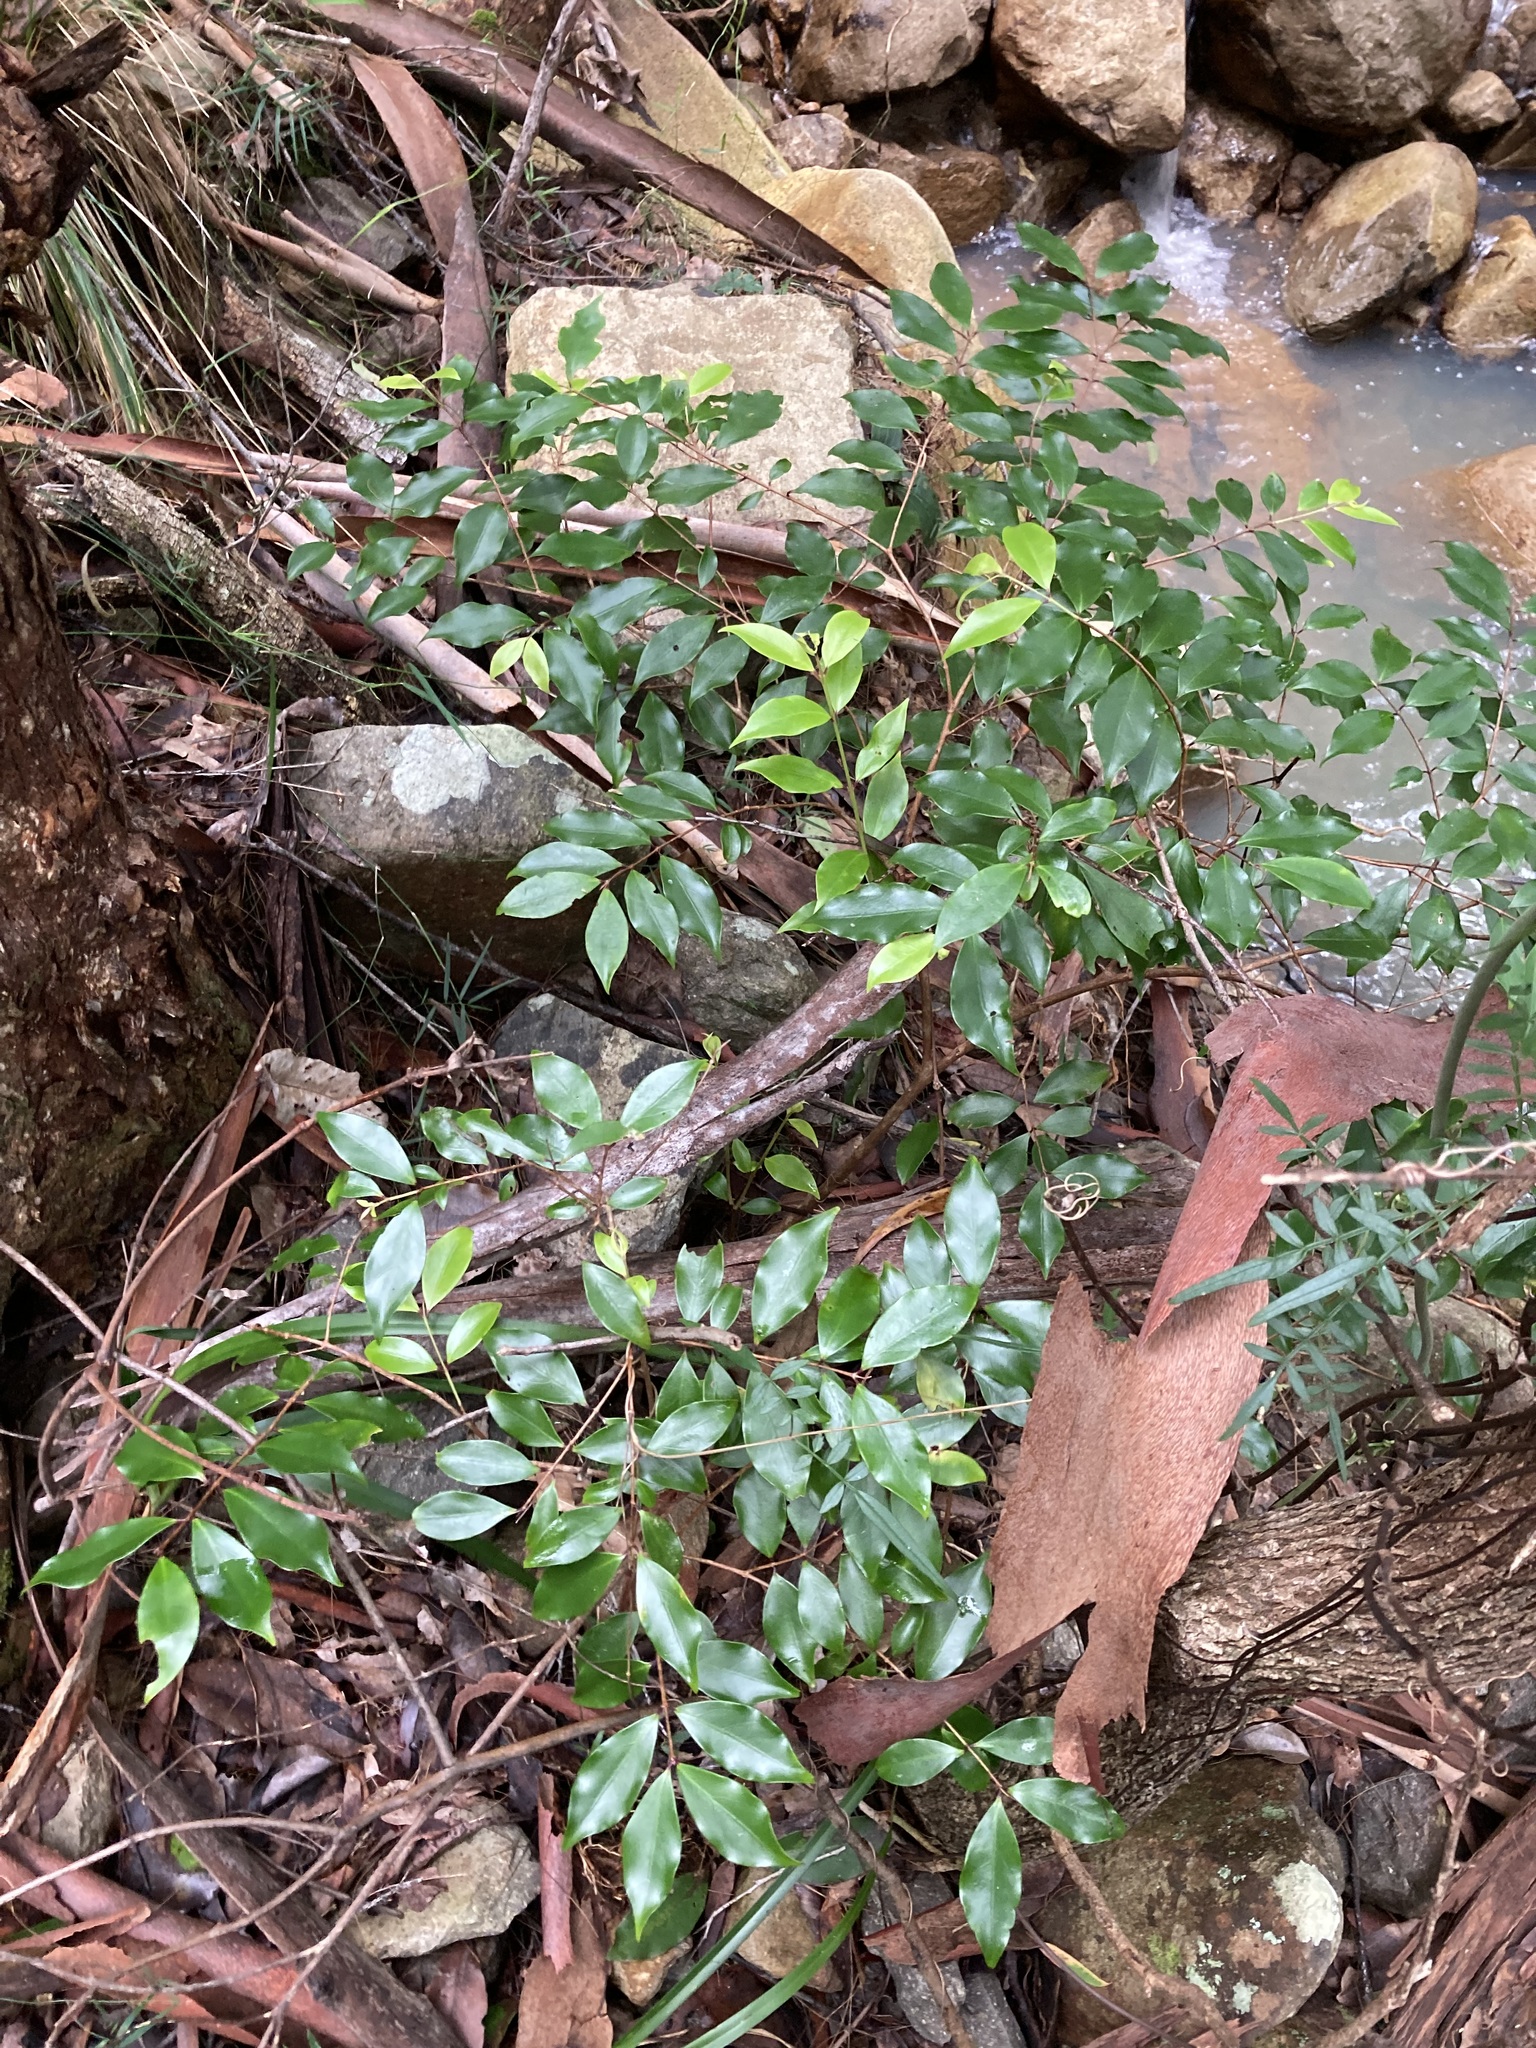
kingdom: Plantae
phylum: Tracheophyta
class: Magnoliopsida
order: Myrtales
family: Myrtaceae
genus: Archirhodomyrtus
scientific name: Archirhodomyrtus beckleri
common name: Beckler's myrtle
